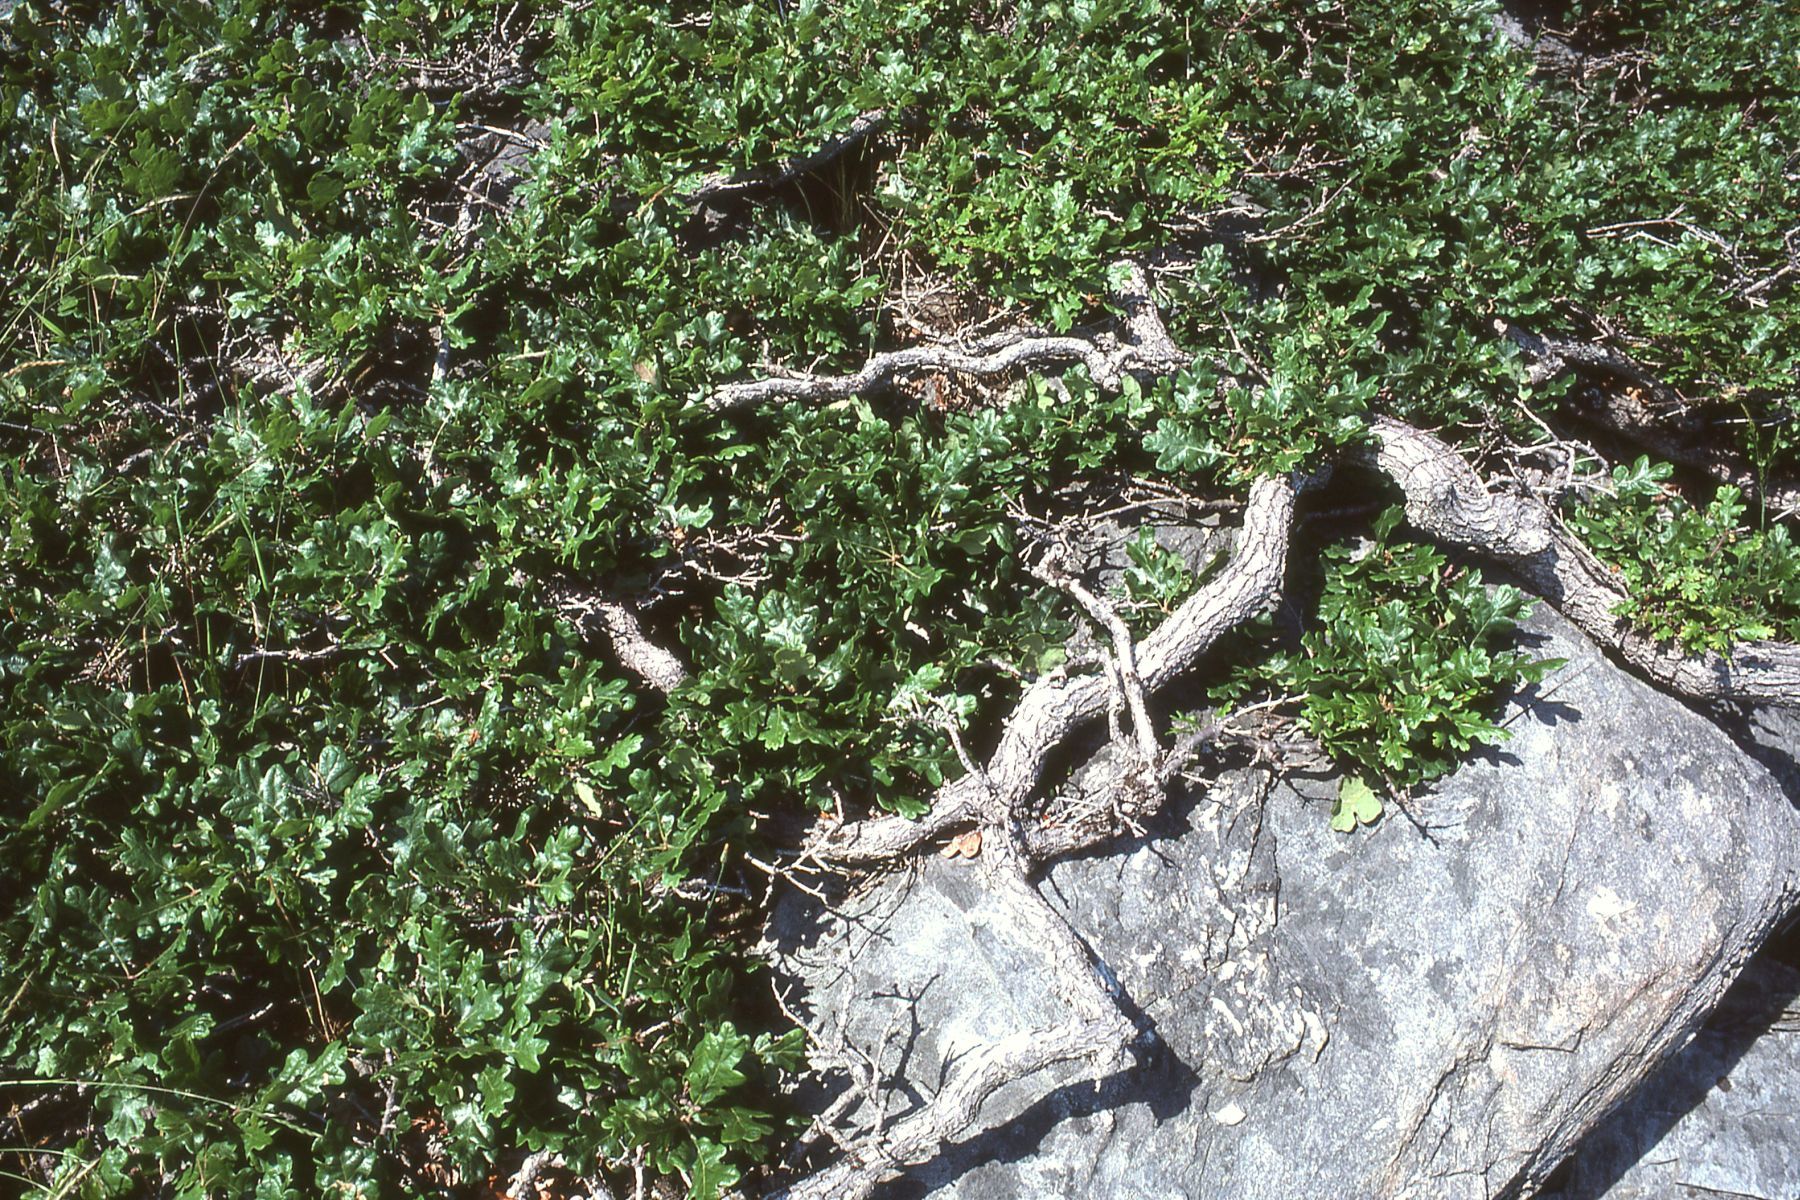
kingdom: Plantae
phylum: Tracheophyta
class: Magnoliopsida
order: Fagales
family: Fagaceae
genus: Quercus
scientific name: Quercus garryana
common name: Garry oak
